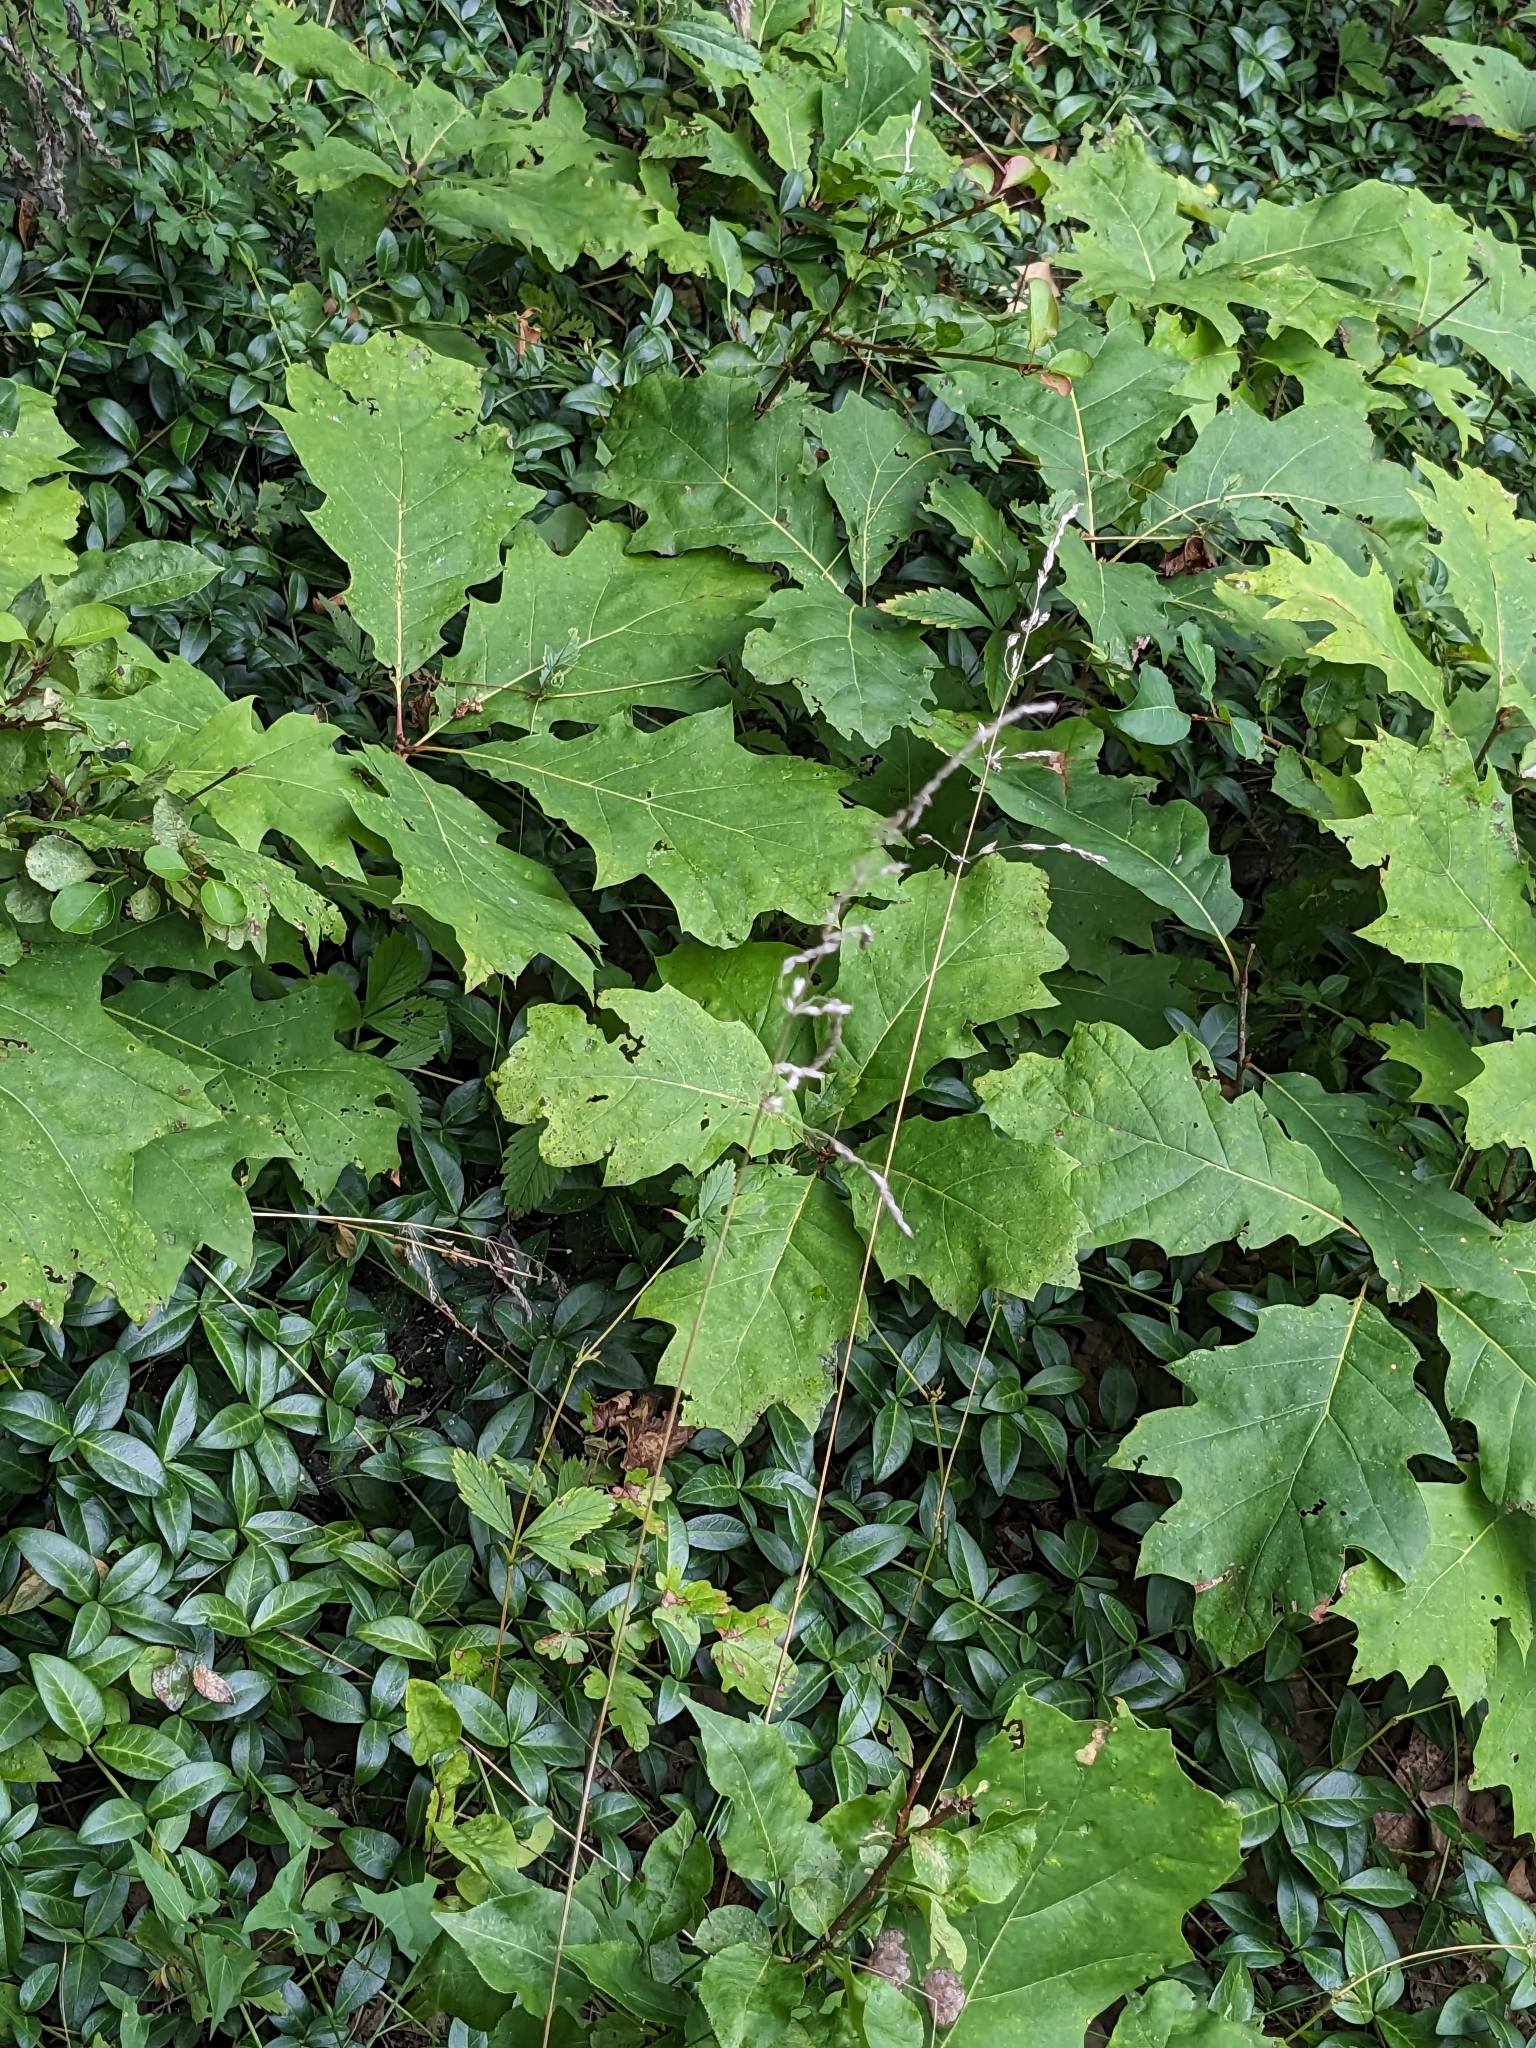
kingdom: Plantae
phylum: Tracheophyta
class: Magnoliopsida
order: Fagales
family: Fagaceae
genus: Quercus
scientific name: Quercus rubra
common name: Red oak
